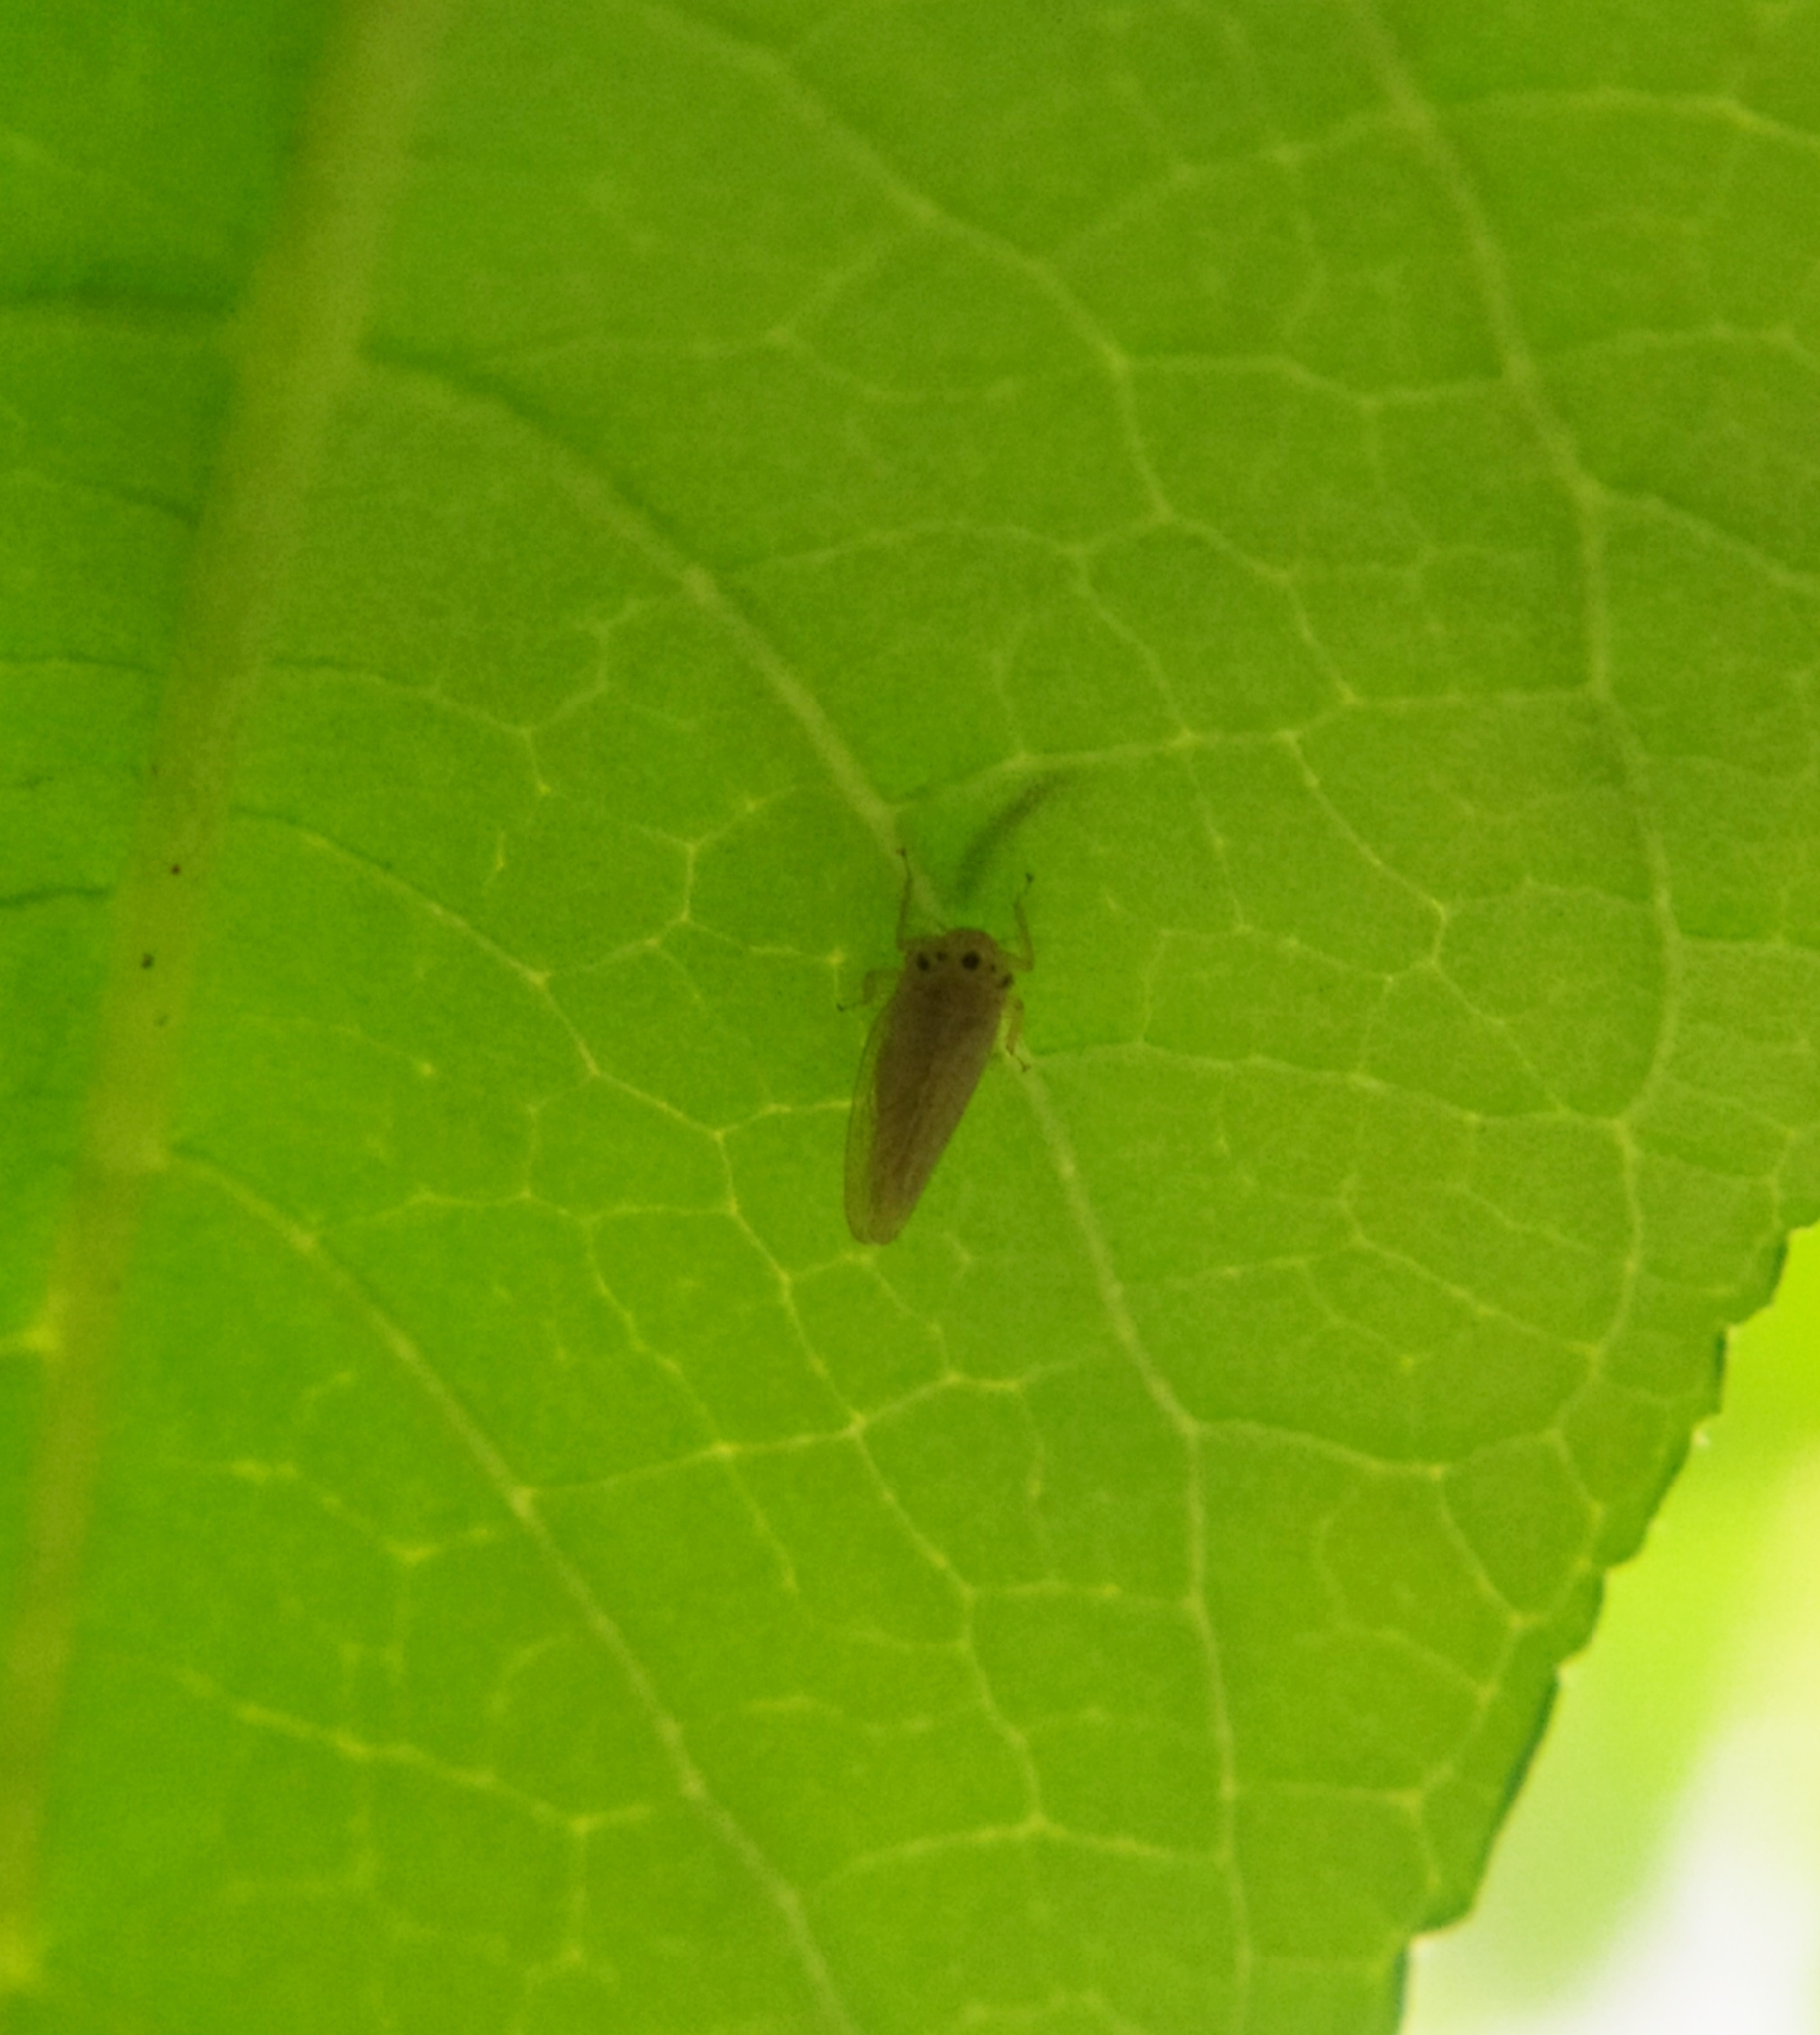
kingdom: Animalia
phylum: Arthropoda
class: Insecta
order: Hemiptera
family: Cicadellidae
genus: Phlogotettix
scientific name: Phlogotettix cyclops
